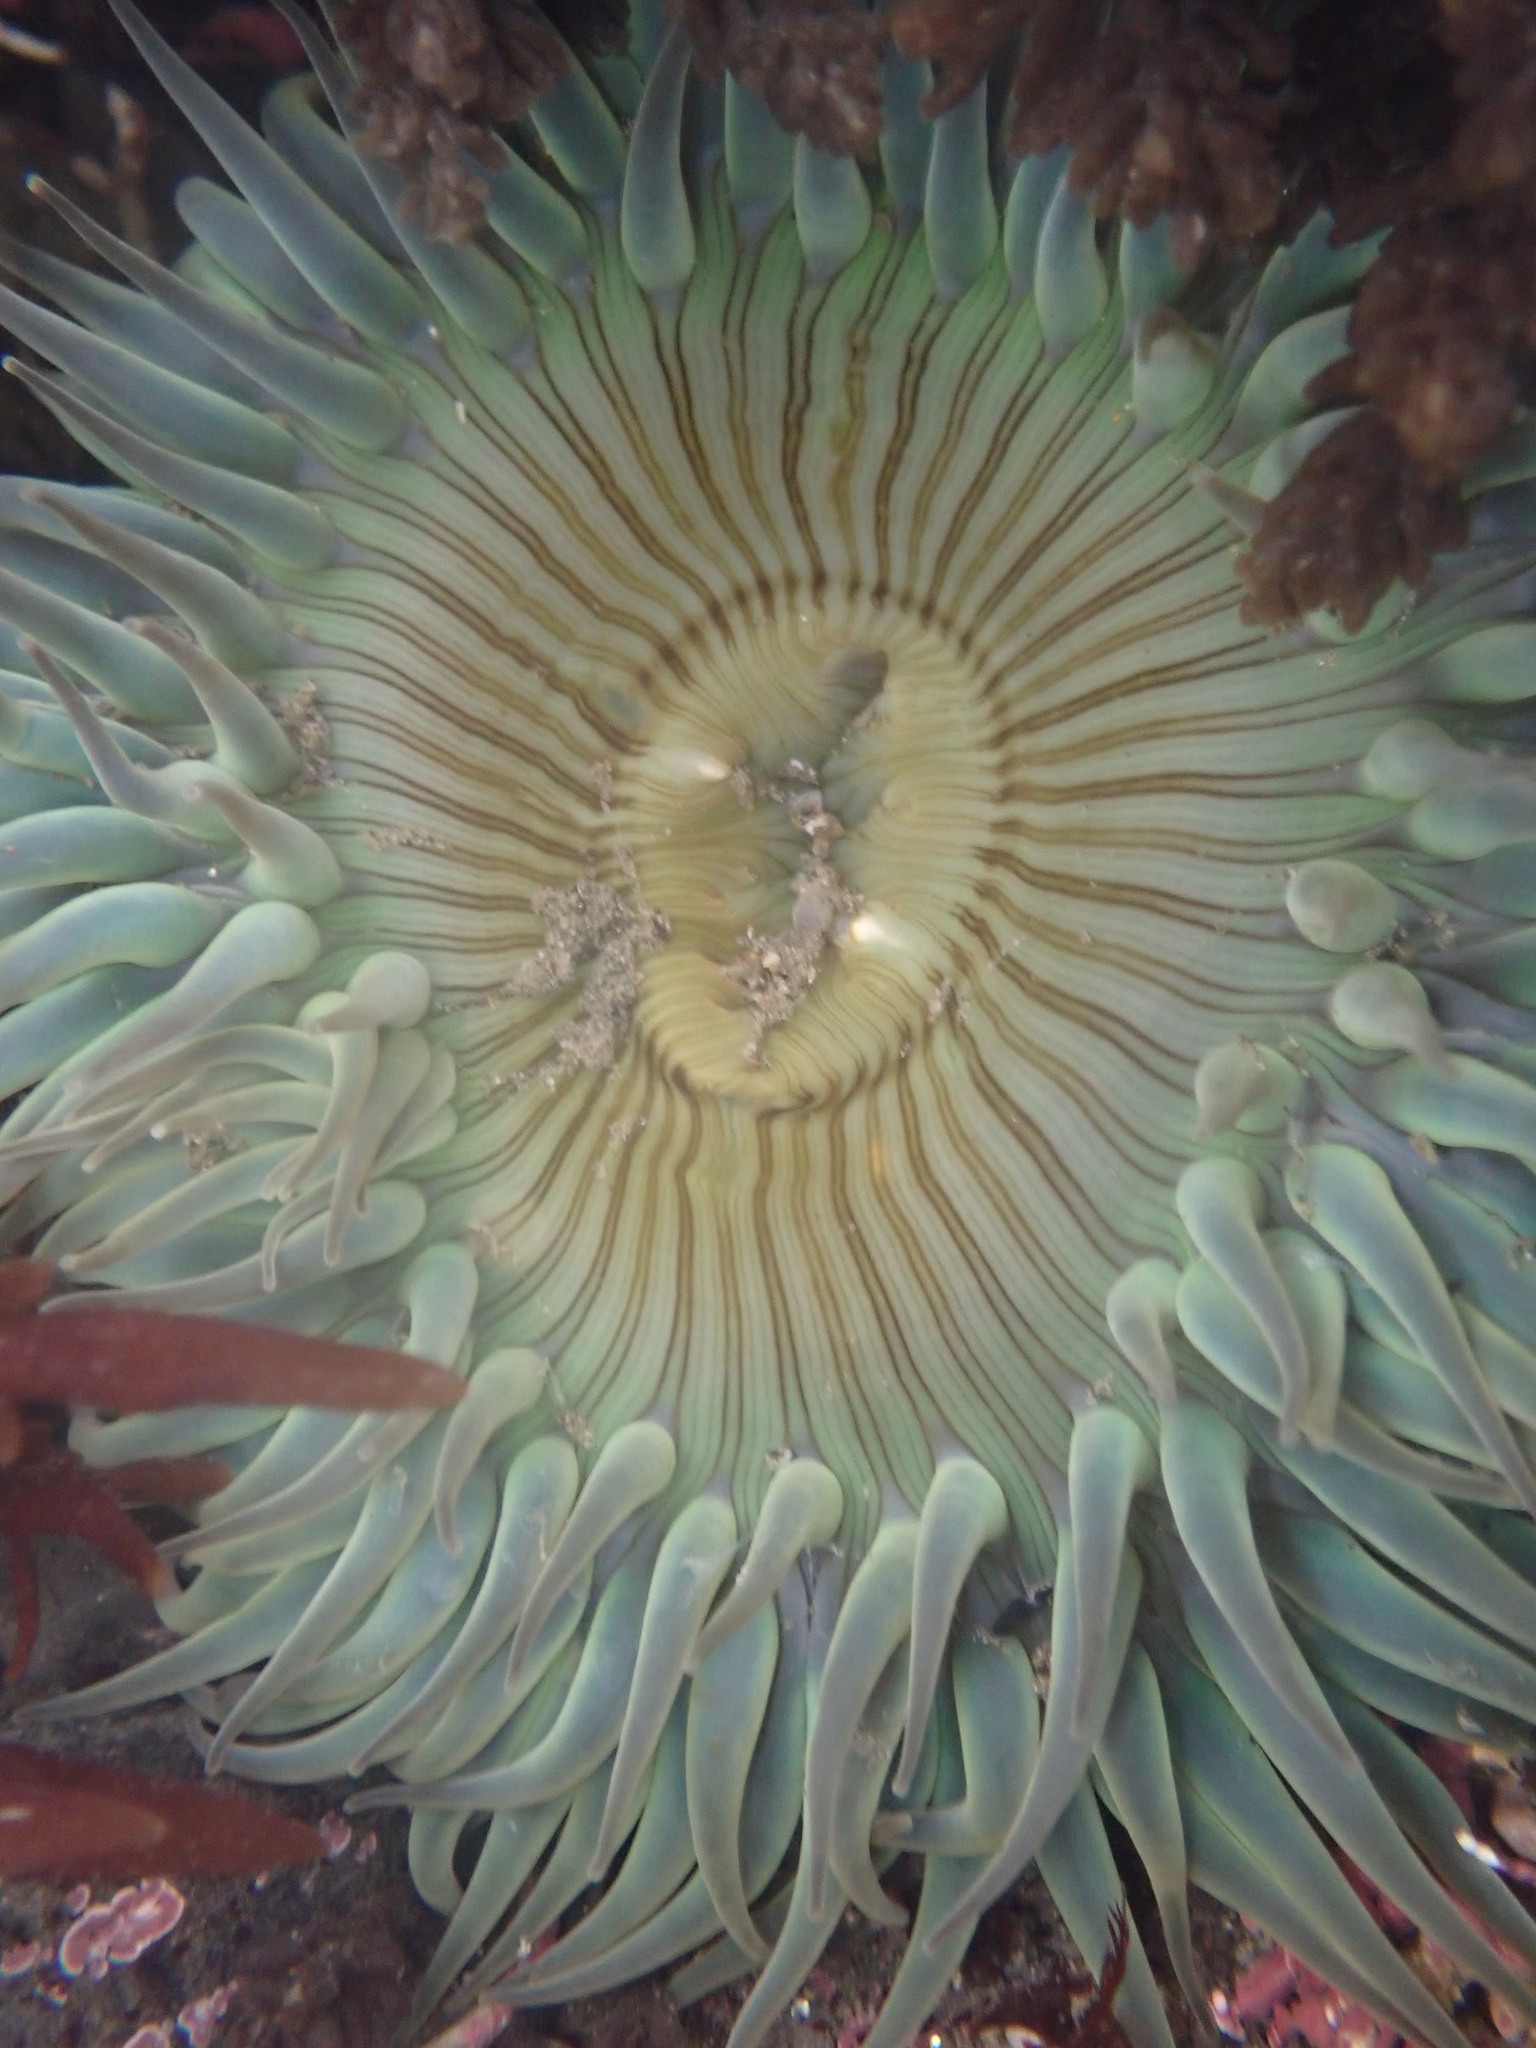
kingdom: Animalia
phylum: Cnidaria
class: Anthozoa
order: Actiniaria
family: Actiniidae
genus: Anthopleura
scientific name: Anthopleura sola
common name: Sun anemone
